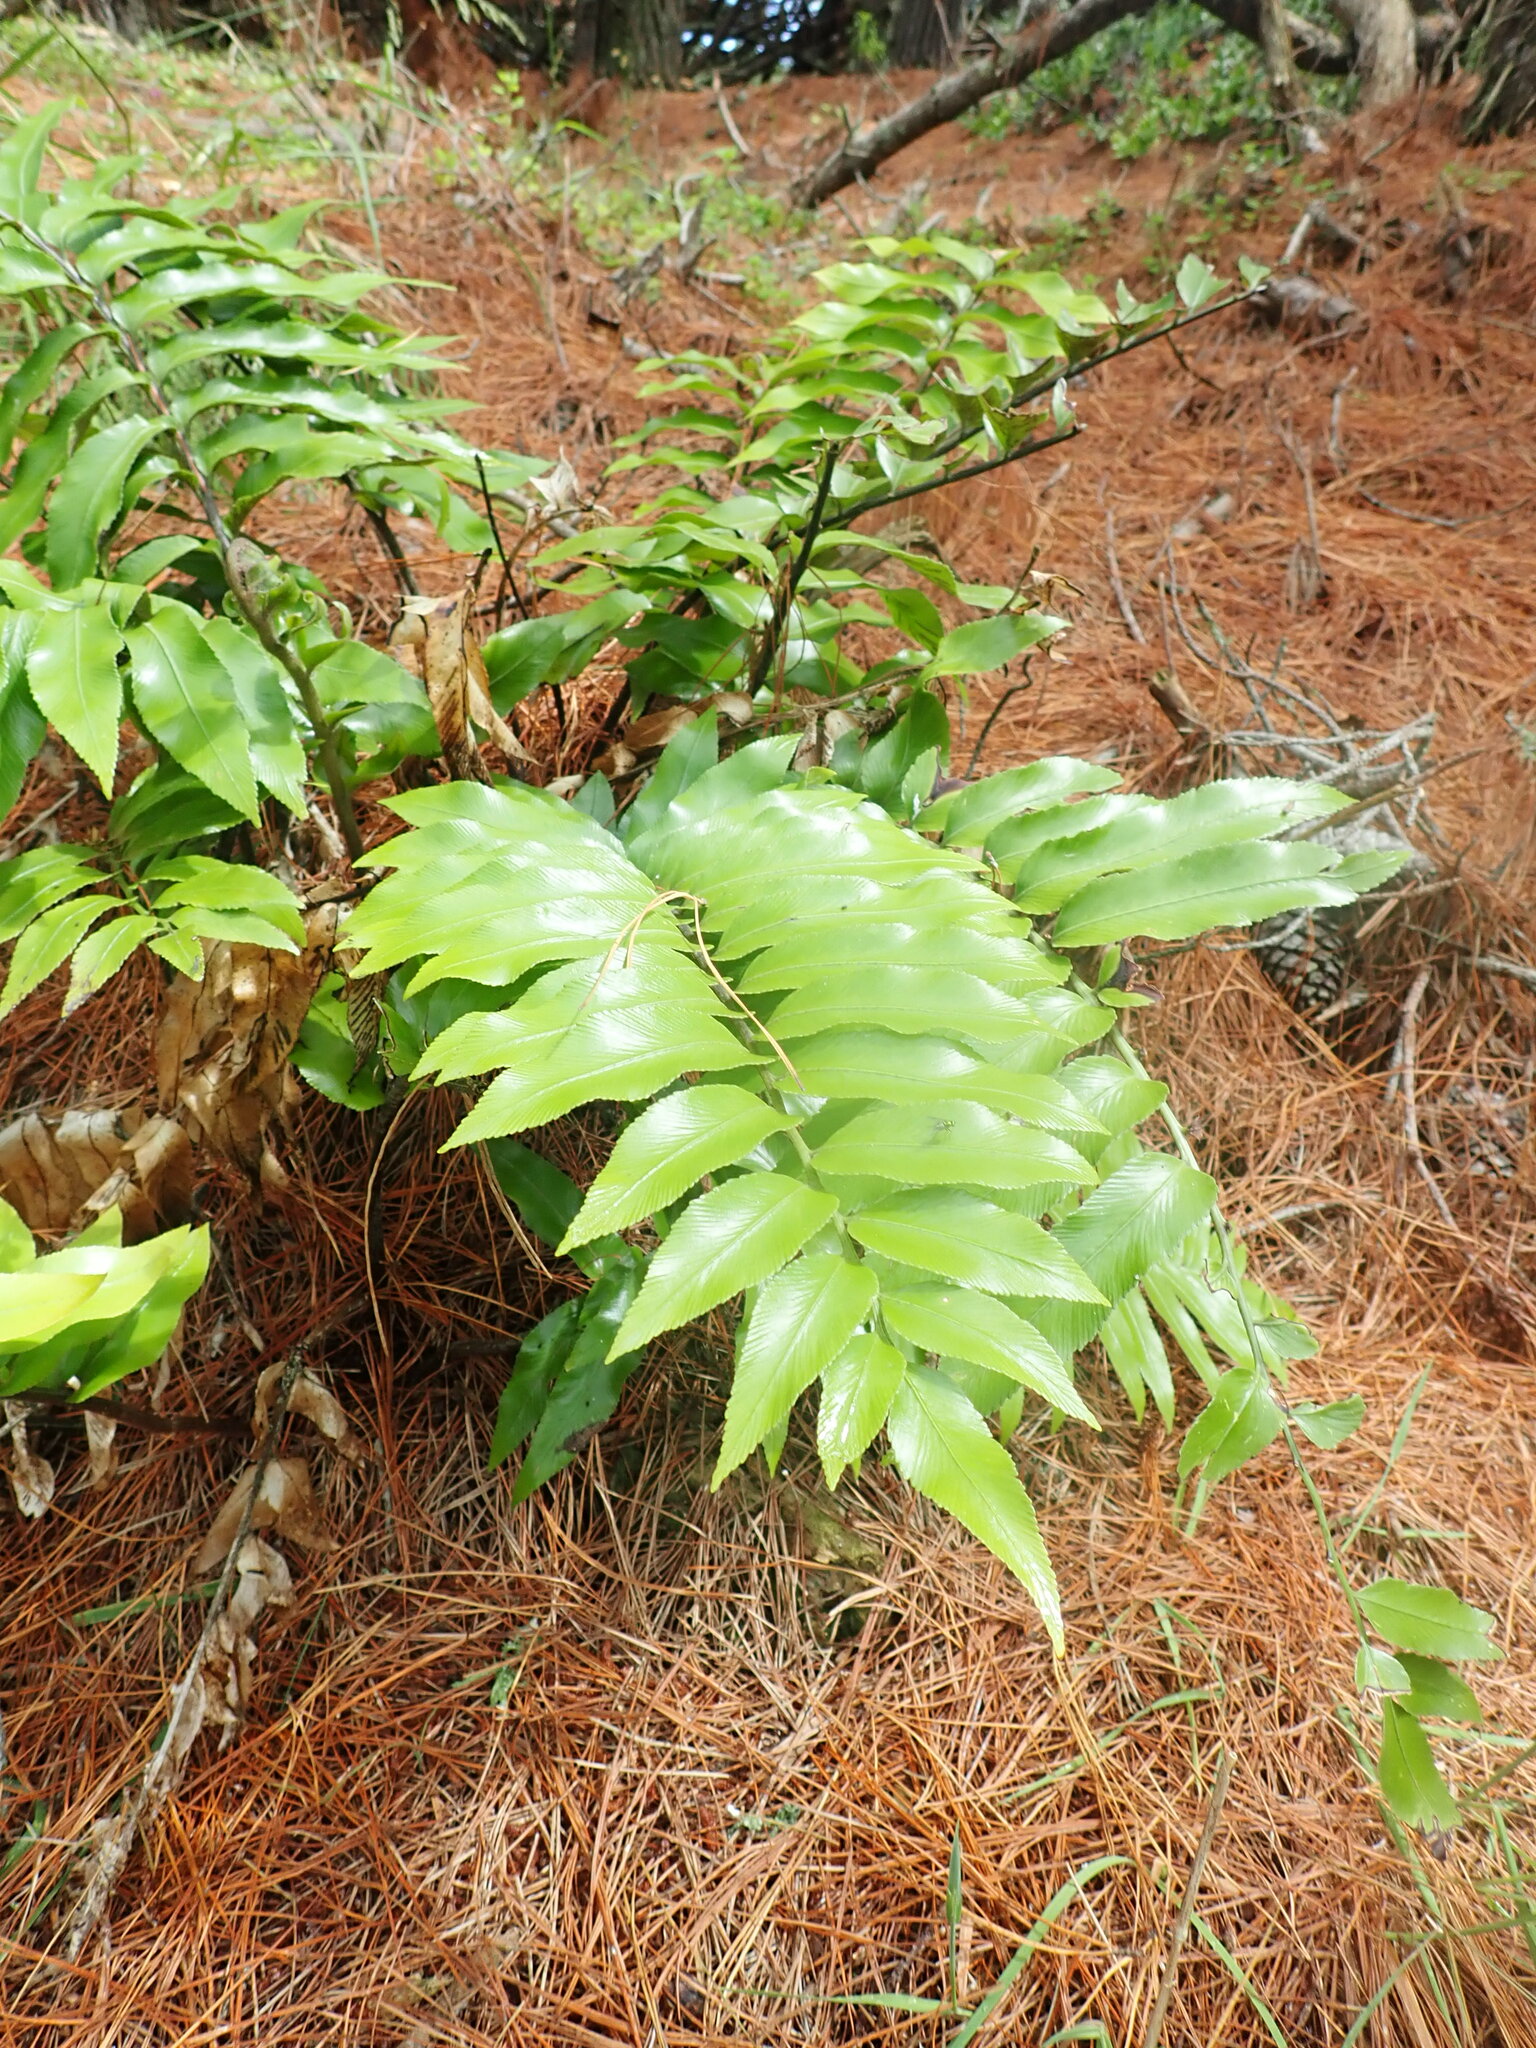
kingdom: Plantae
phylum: Tracheophyta
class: Polypodiopsida
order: Polypodiales
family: Aspleniaceae
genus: Asplenium
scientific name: Asplenium oblongifolium
